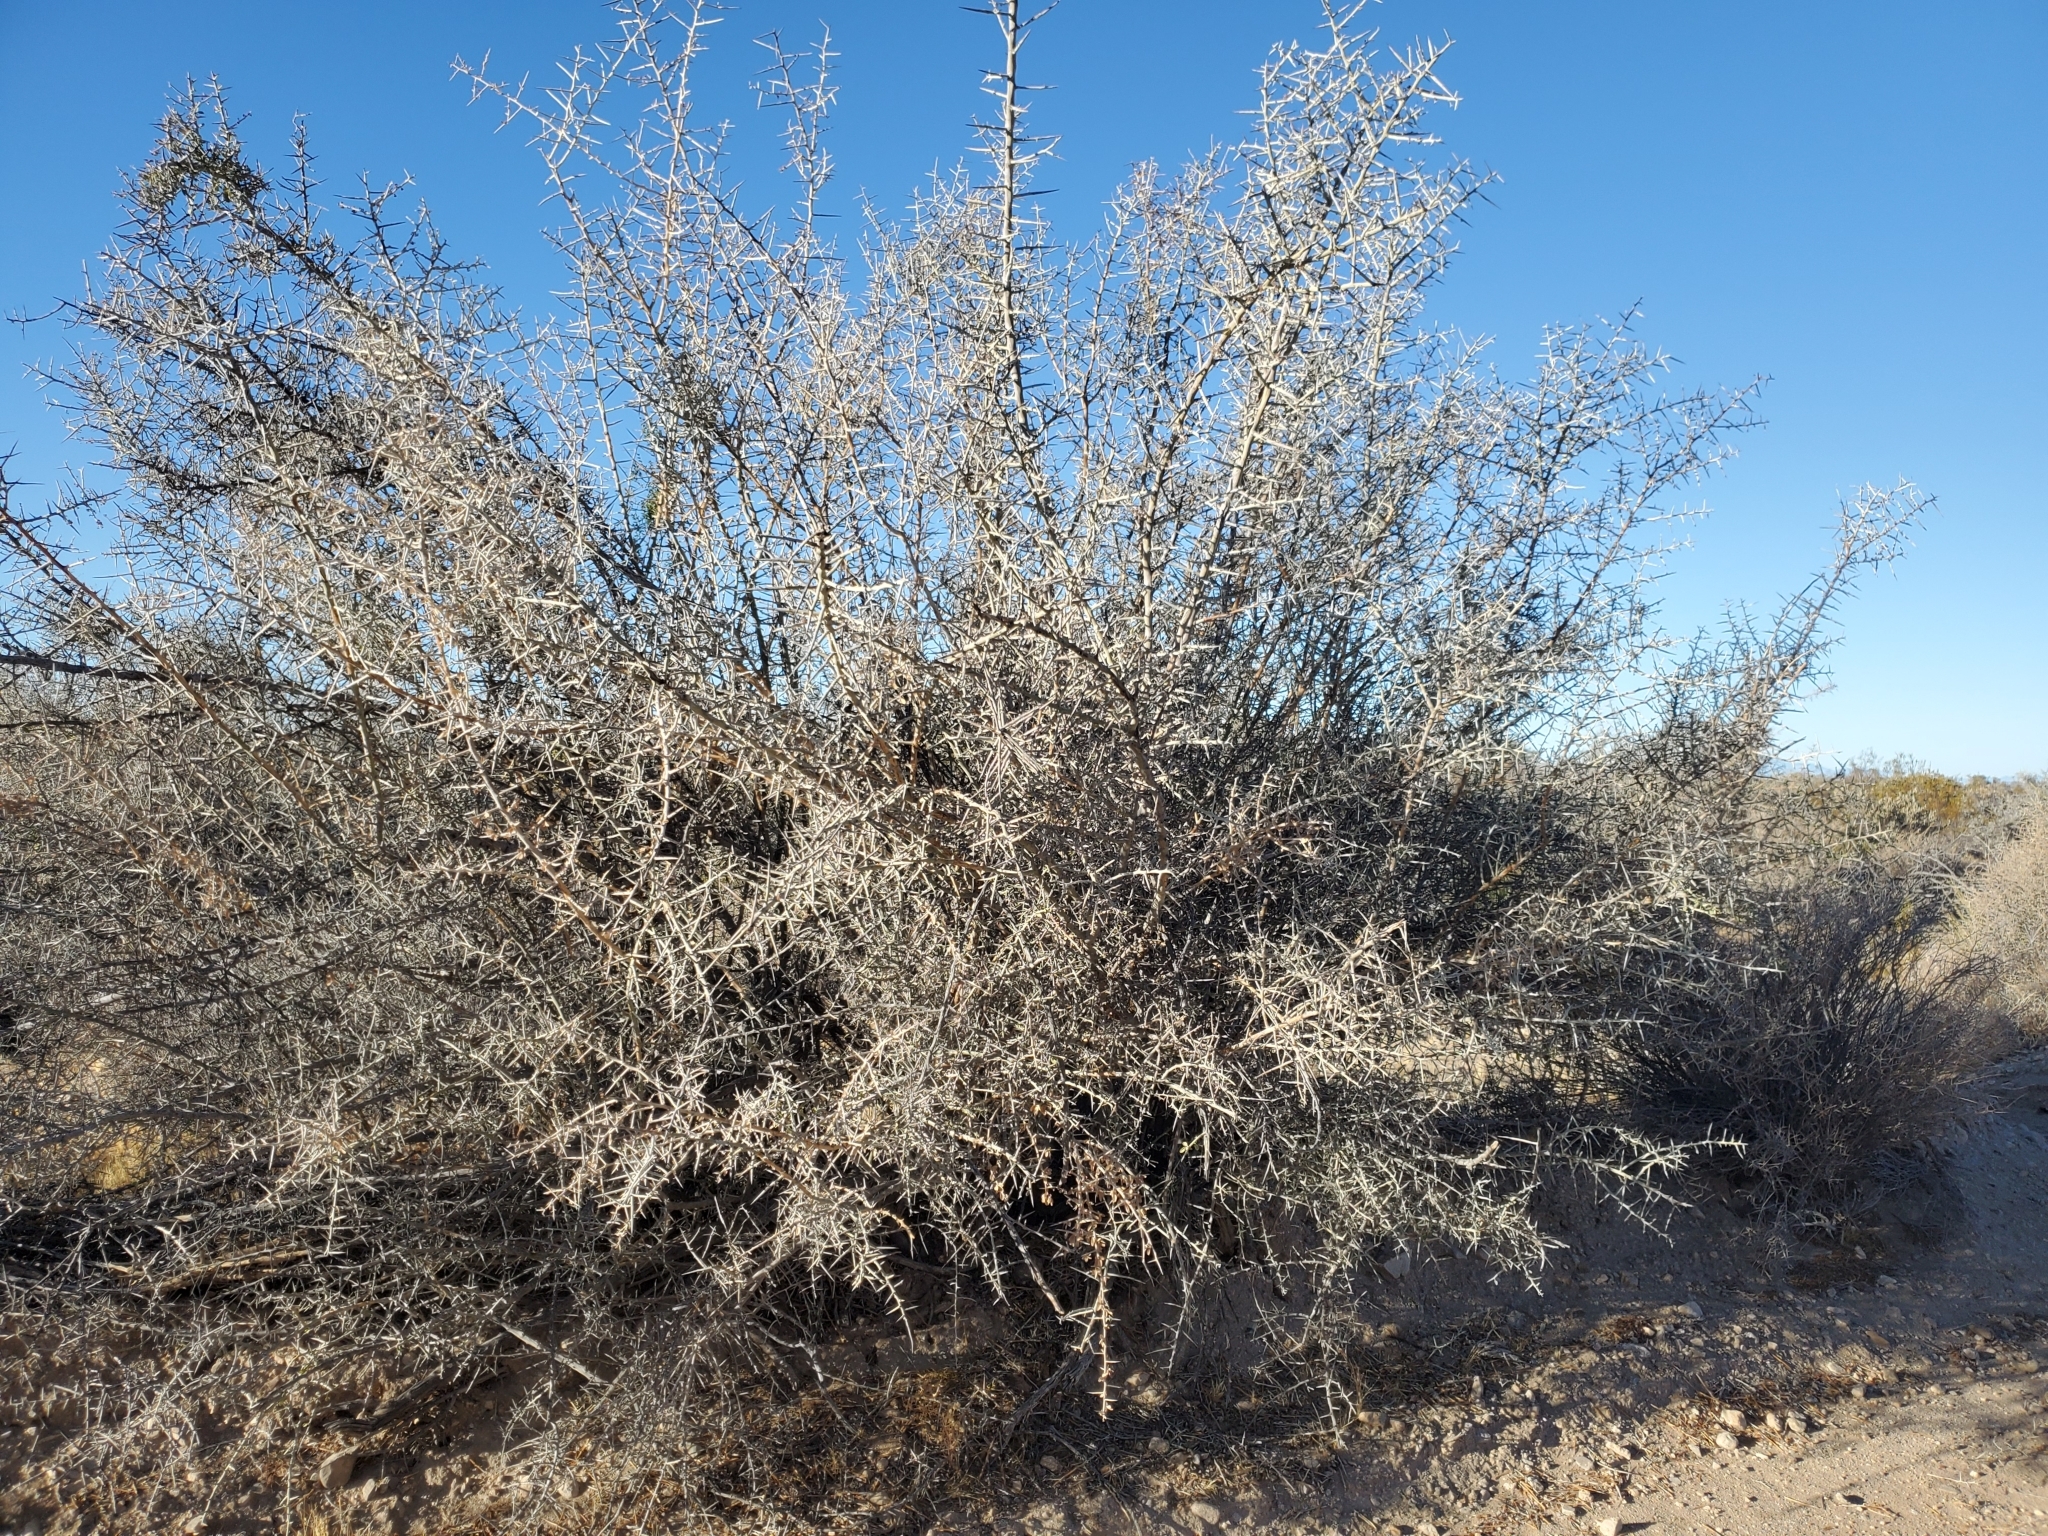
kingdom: Plantae
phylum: Tracheophyta
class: Magnoliopsida
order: Rosales
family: Rhamnaceae
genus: Sarcomphalus
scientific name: Sarcomphalus obtusifolius
